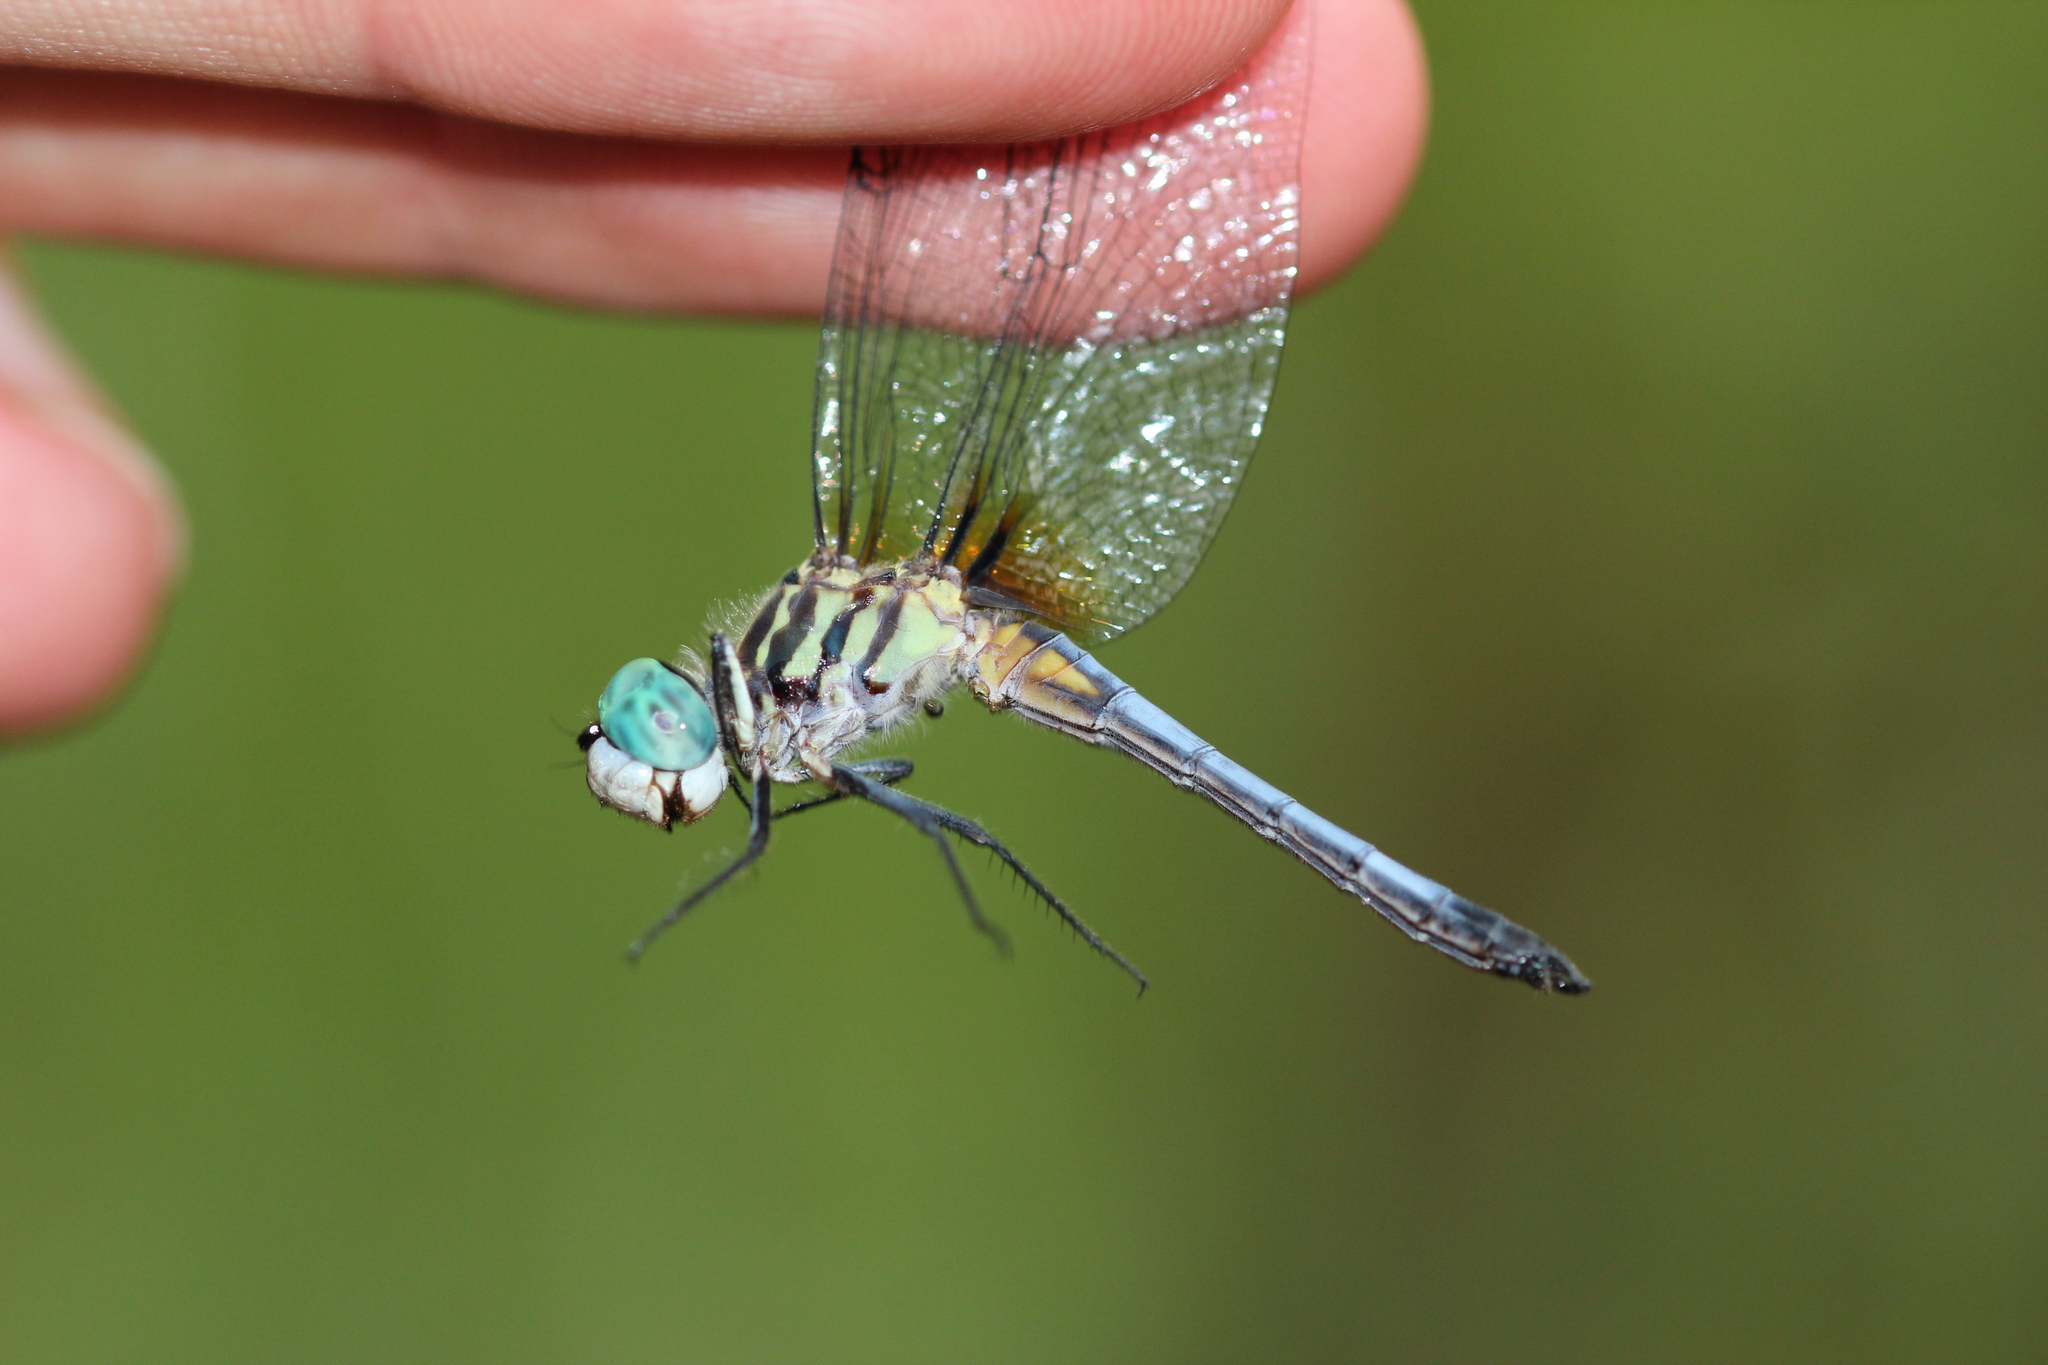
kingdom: Animalia
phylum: Arthropoda
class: Insecta
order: Odonata
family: Libellulidae
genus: Pachydiplax
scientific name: Pachydiplax longipennis
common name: Blue dasher
